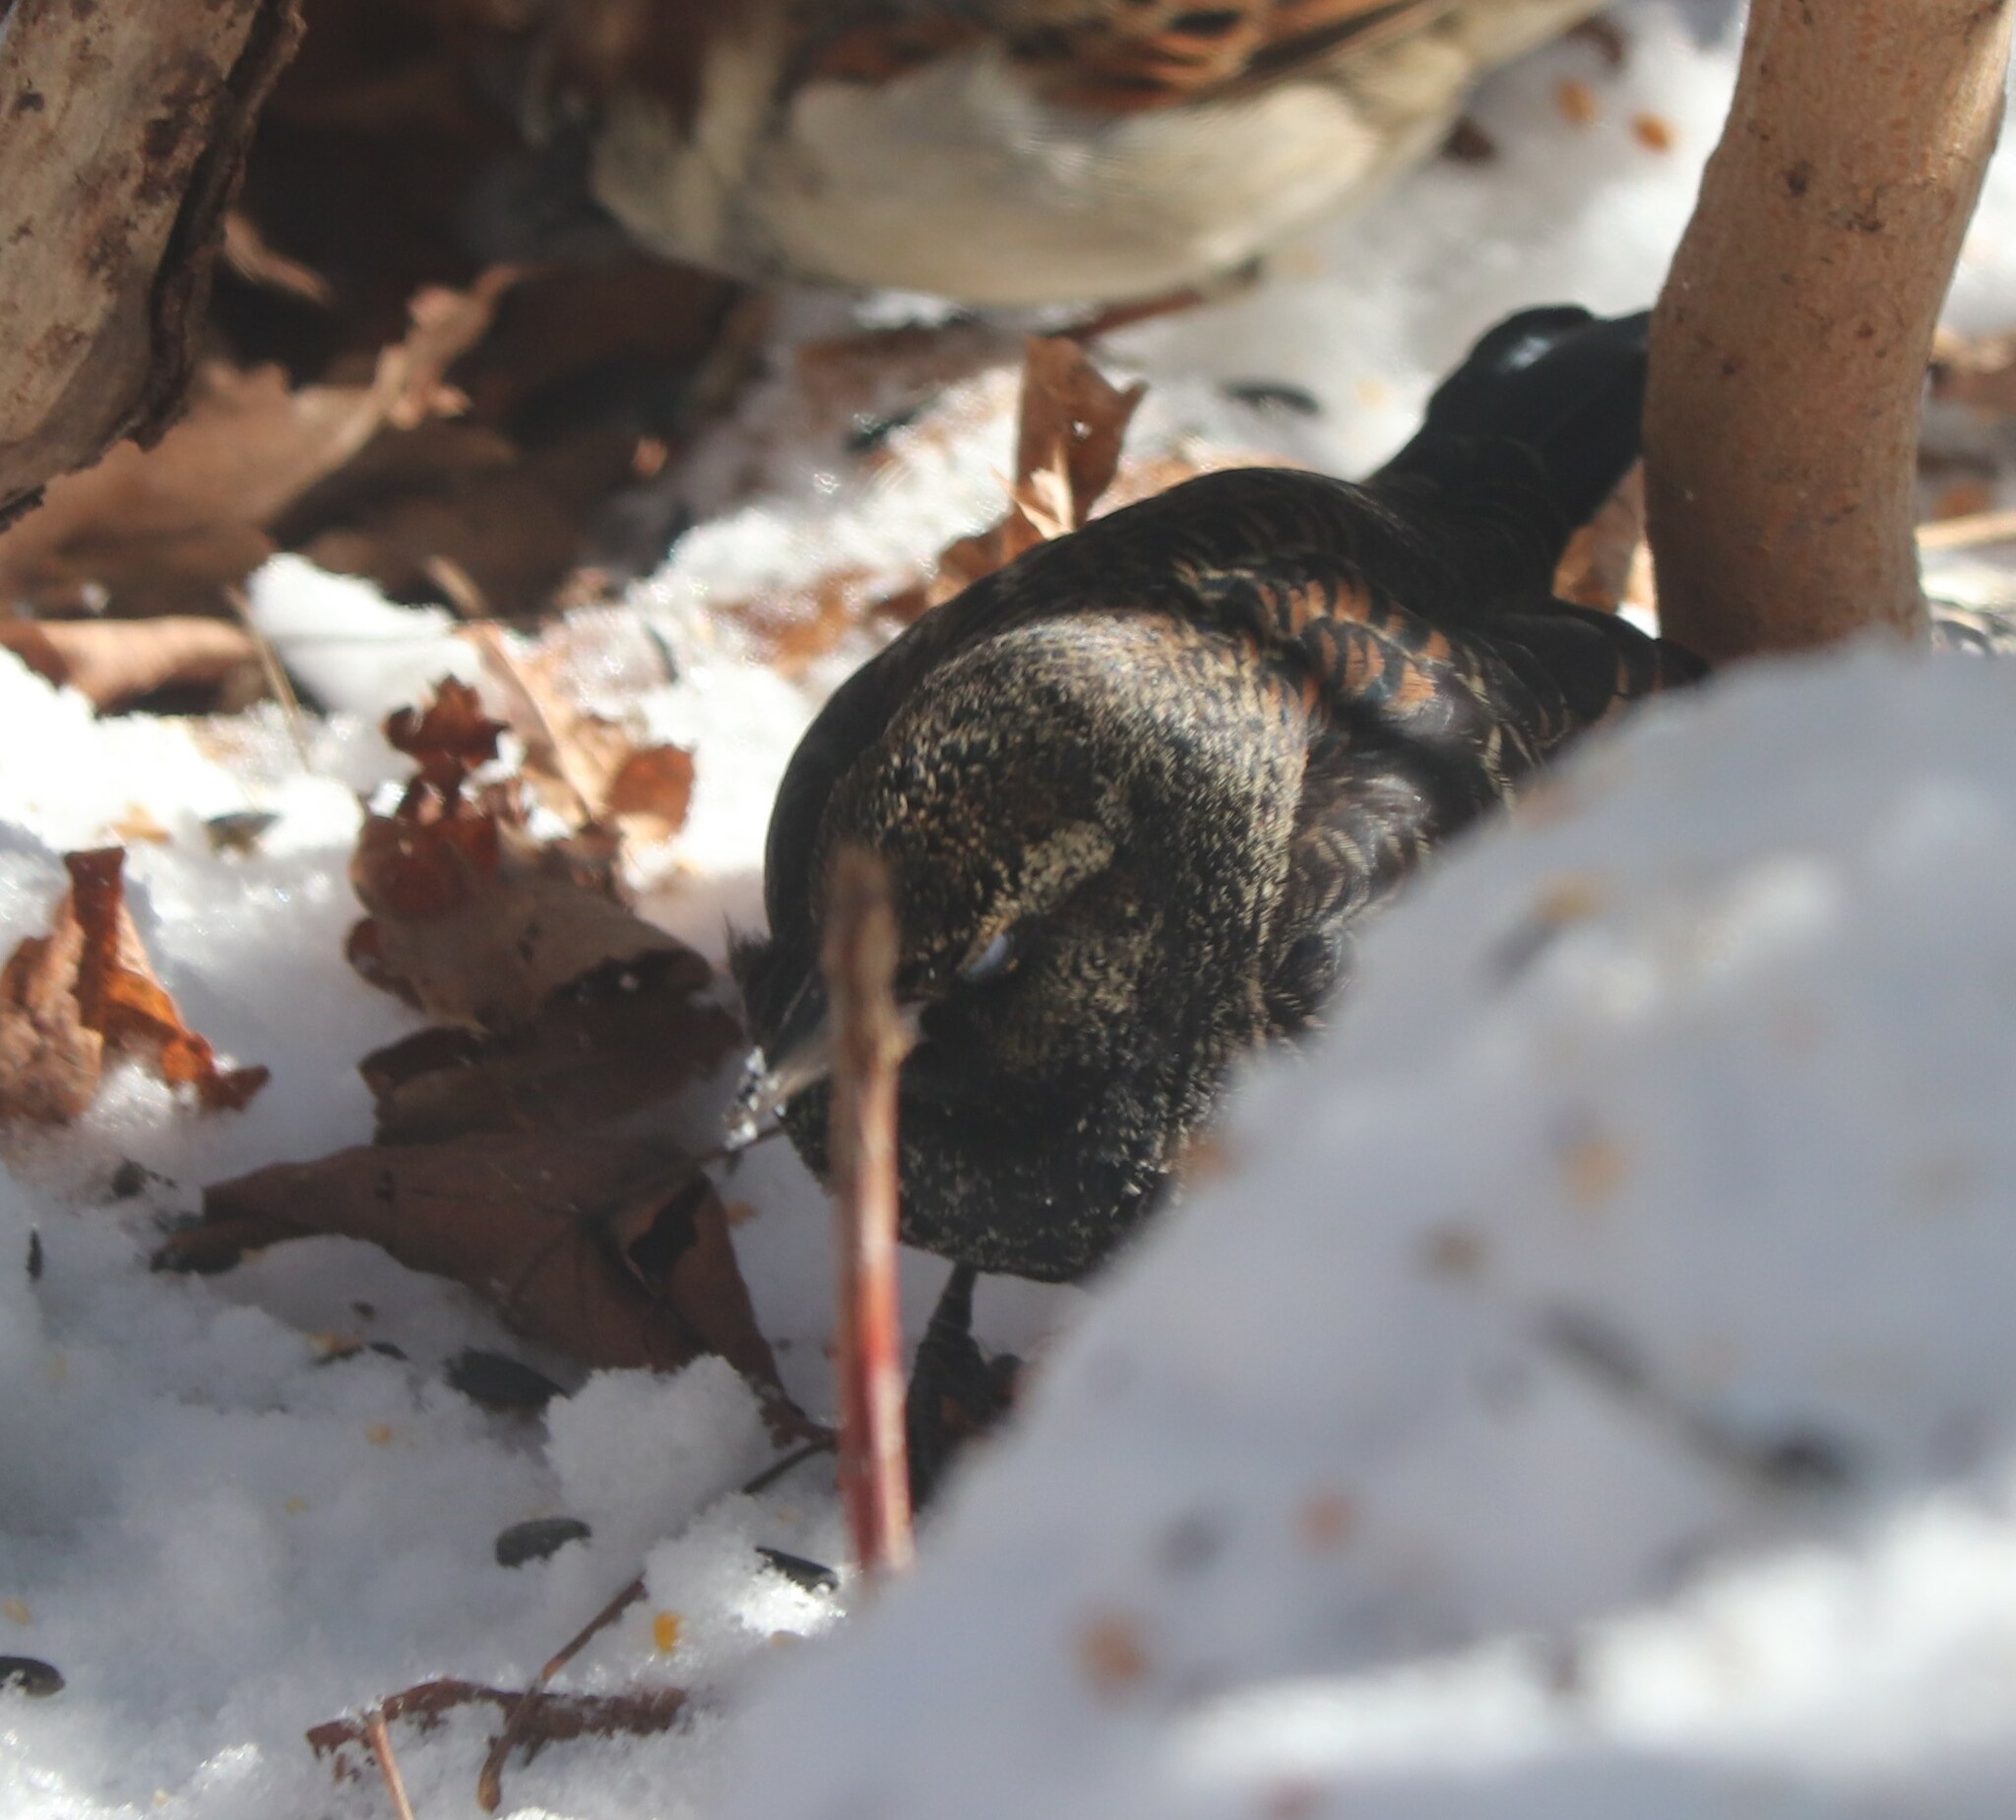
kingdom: Animalia
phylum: Chordata
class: Aves
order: Passeriformes
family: Icteridae
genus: Agelaius
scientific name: Agelaius phoeniceus
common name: Red-winged blackbird
